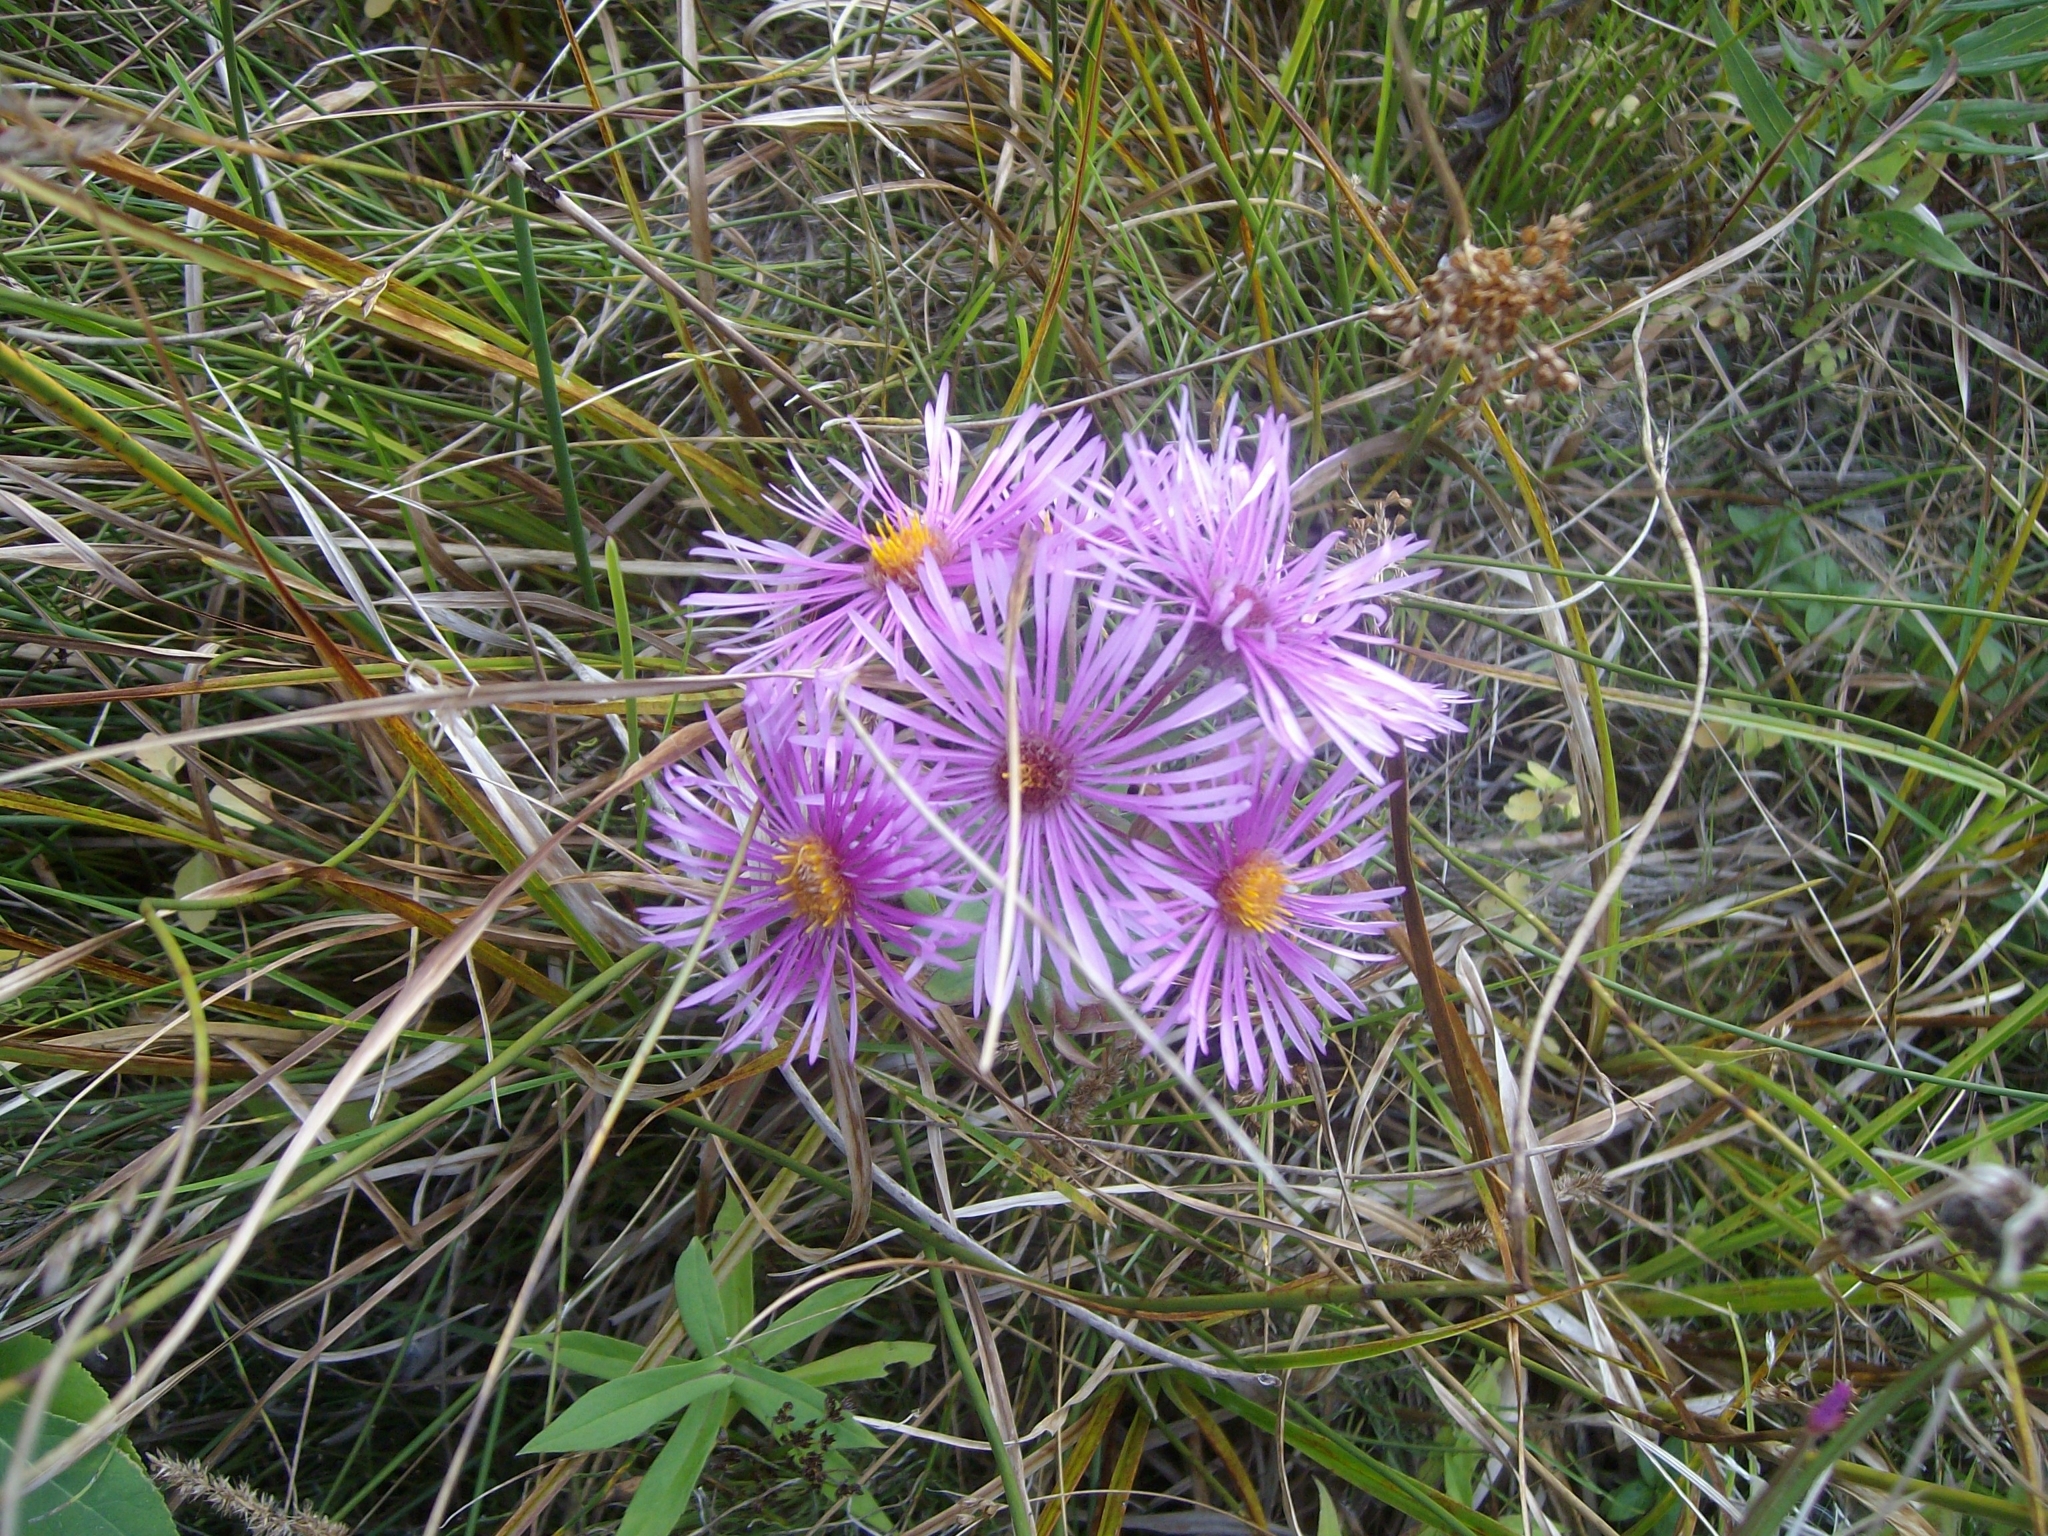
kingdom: Plantae
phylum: Tracheophyta
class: Magnoliopsida
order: Asterales
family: Asteraceae
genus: Symphyotrichum
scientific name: Symphyotrichum novae-angliae
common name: Michaelmas daisy
